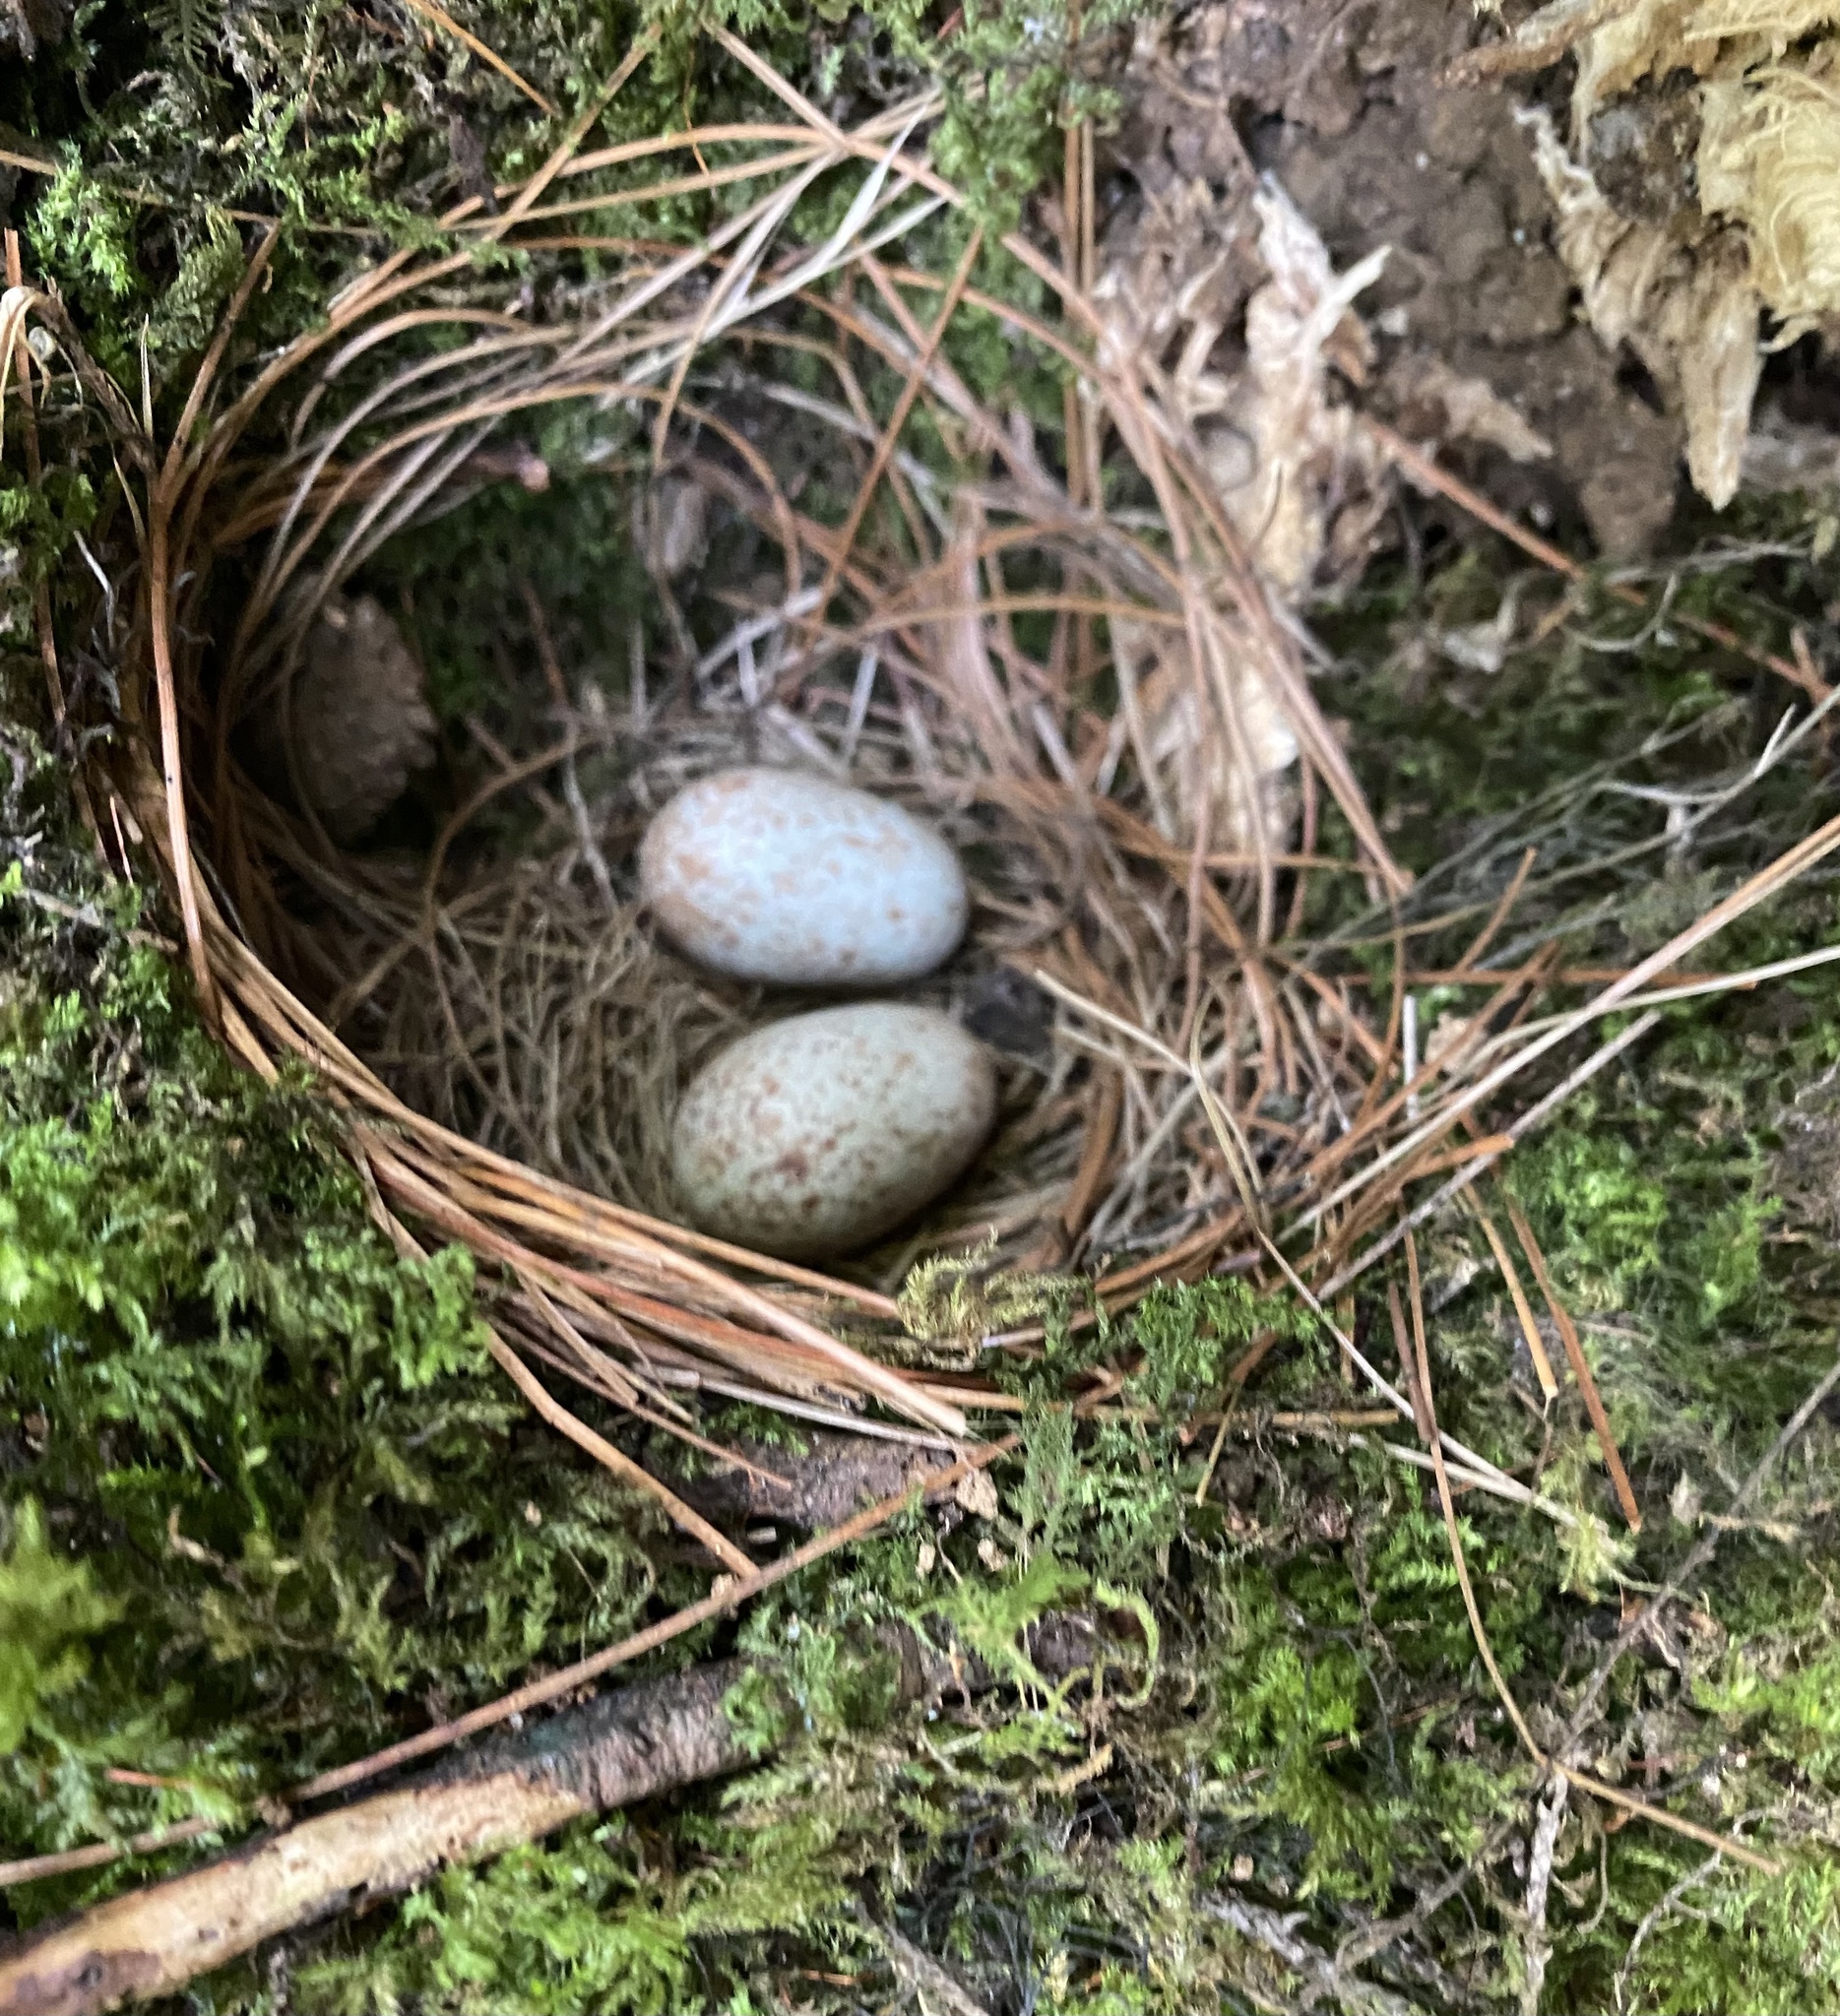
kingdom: Animalia
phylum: Chordata
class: Aves
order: Passeriformes
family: Turdidae
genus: Myadestes
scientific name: Myadestes occidentalis
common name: Brown-backed solitaire
